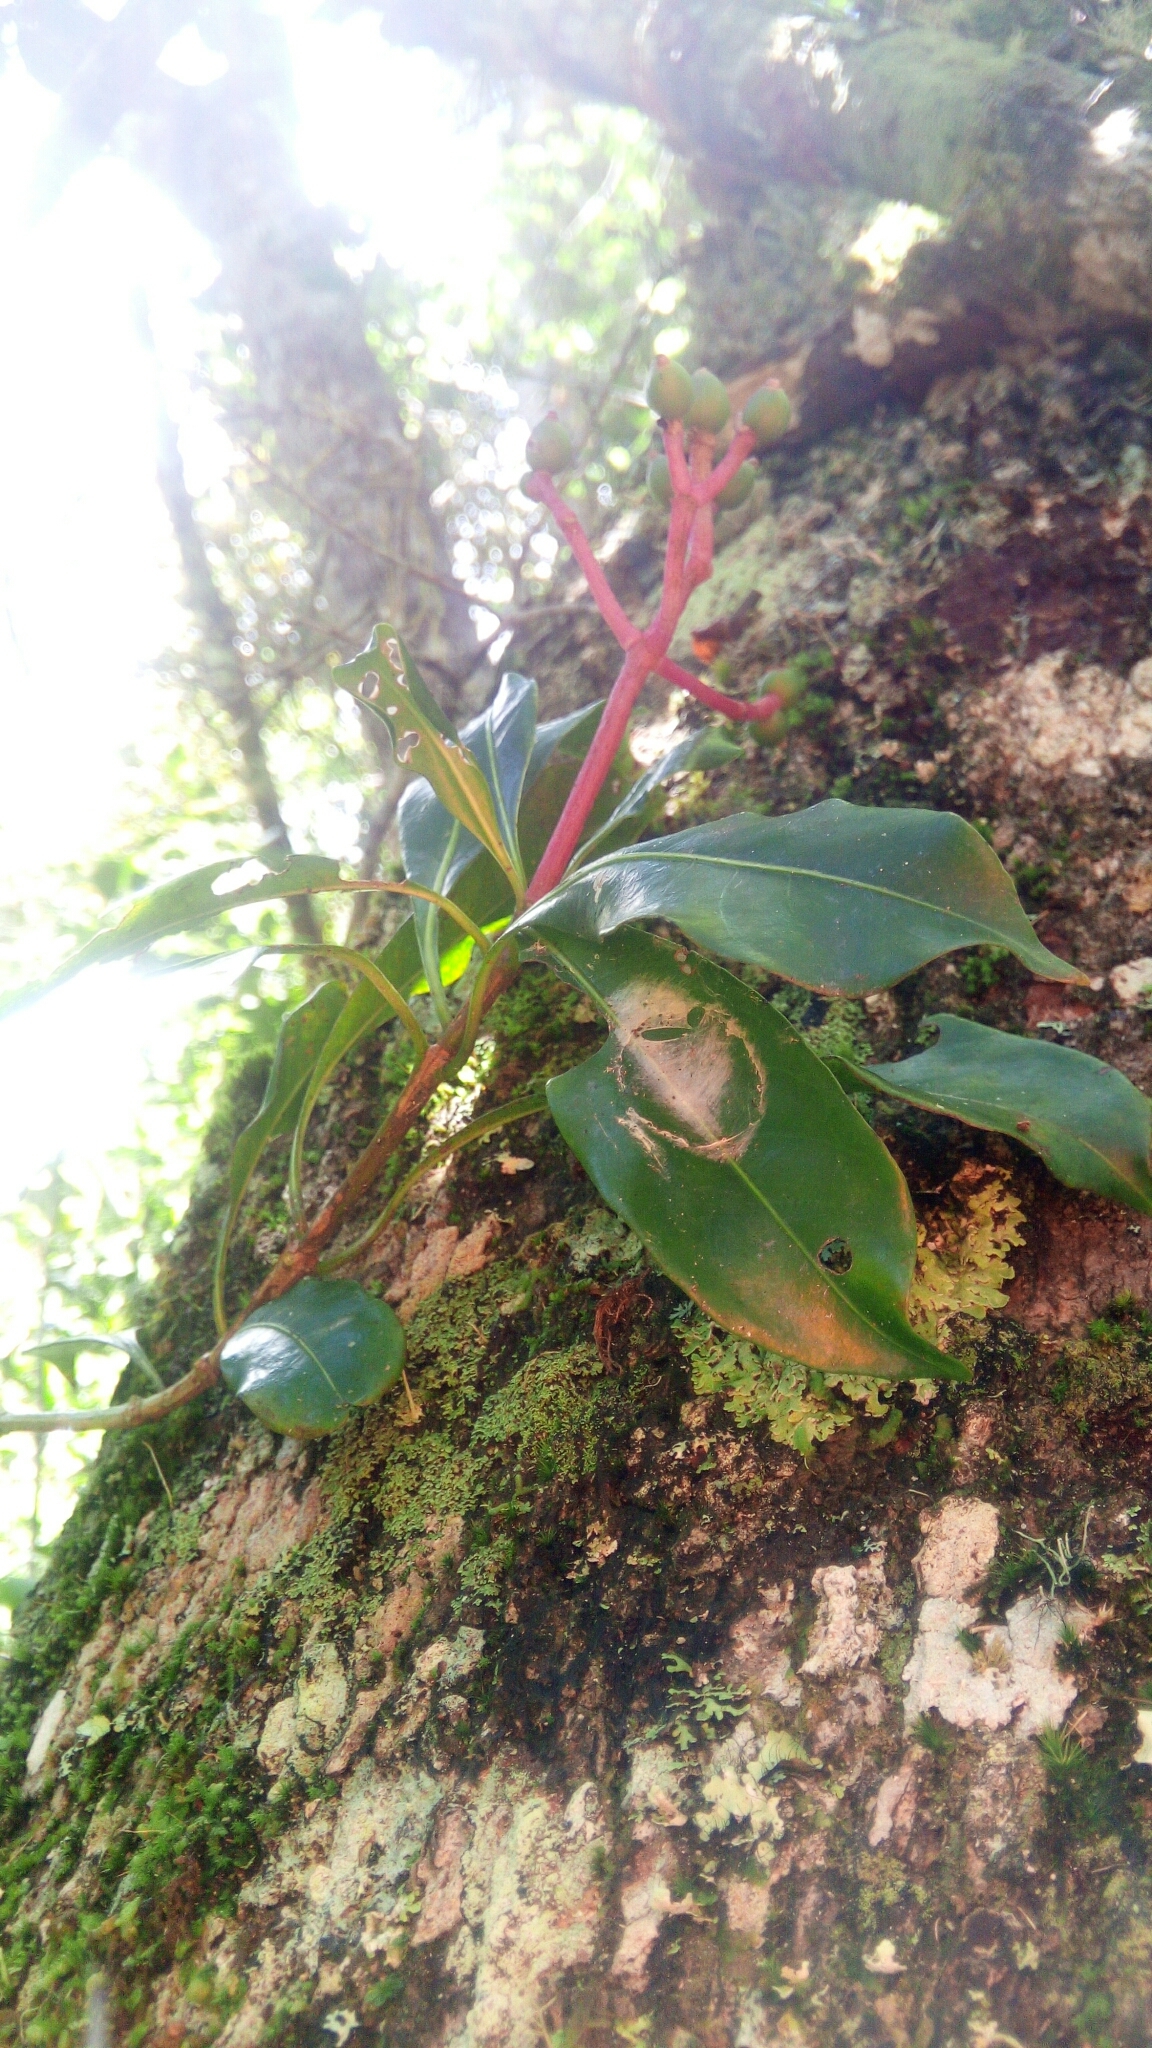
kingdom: Plantae
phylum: Tracheophyta
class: Magnoliopsida
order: Gentianales
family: Rubiaceae
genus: Chassalia
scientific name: Chassalia acutiflora
